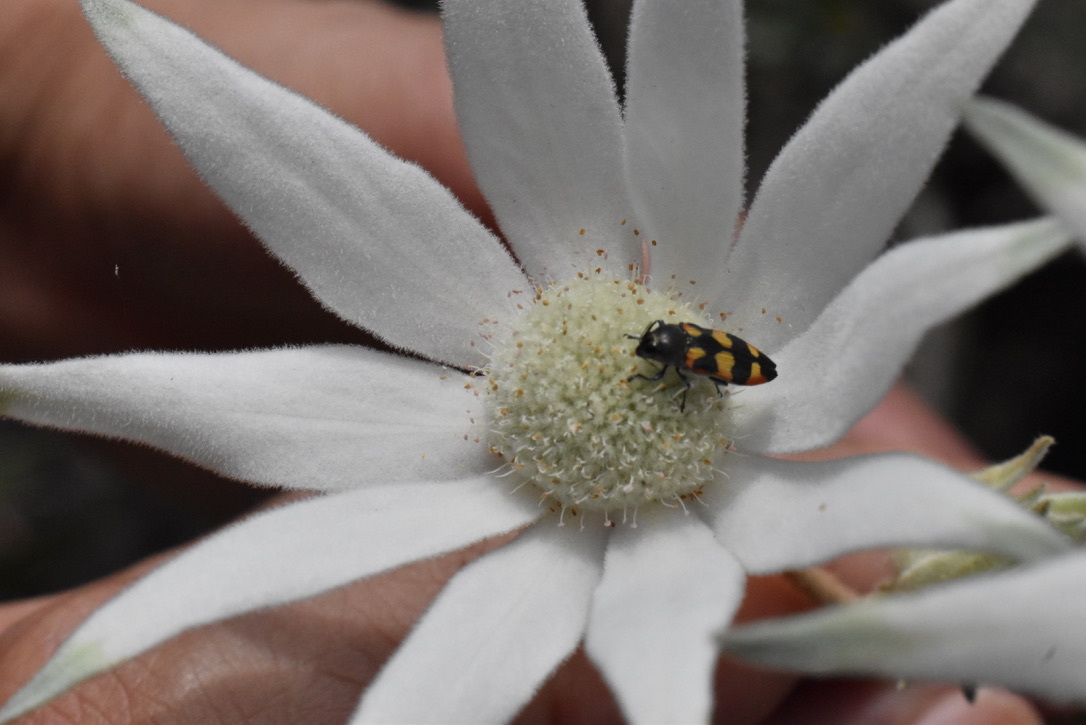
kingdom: Plantae
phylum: Tracheophyta
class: Magnoliopsida
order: Apiales
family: Apiaceae
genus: Actinotus
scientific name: Actinotus helianthi
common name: Flannel-flower
